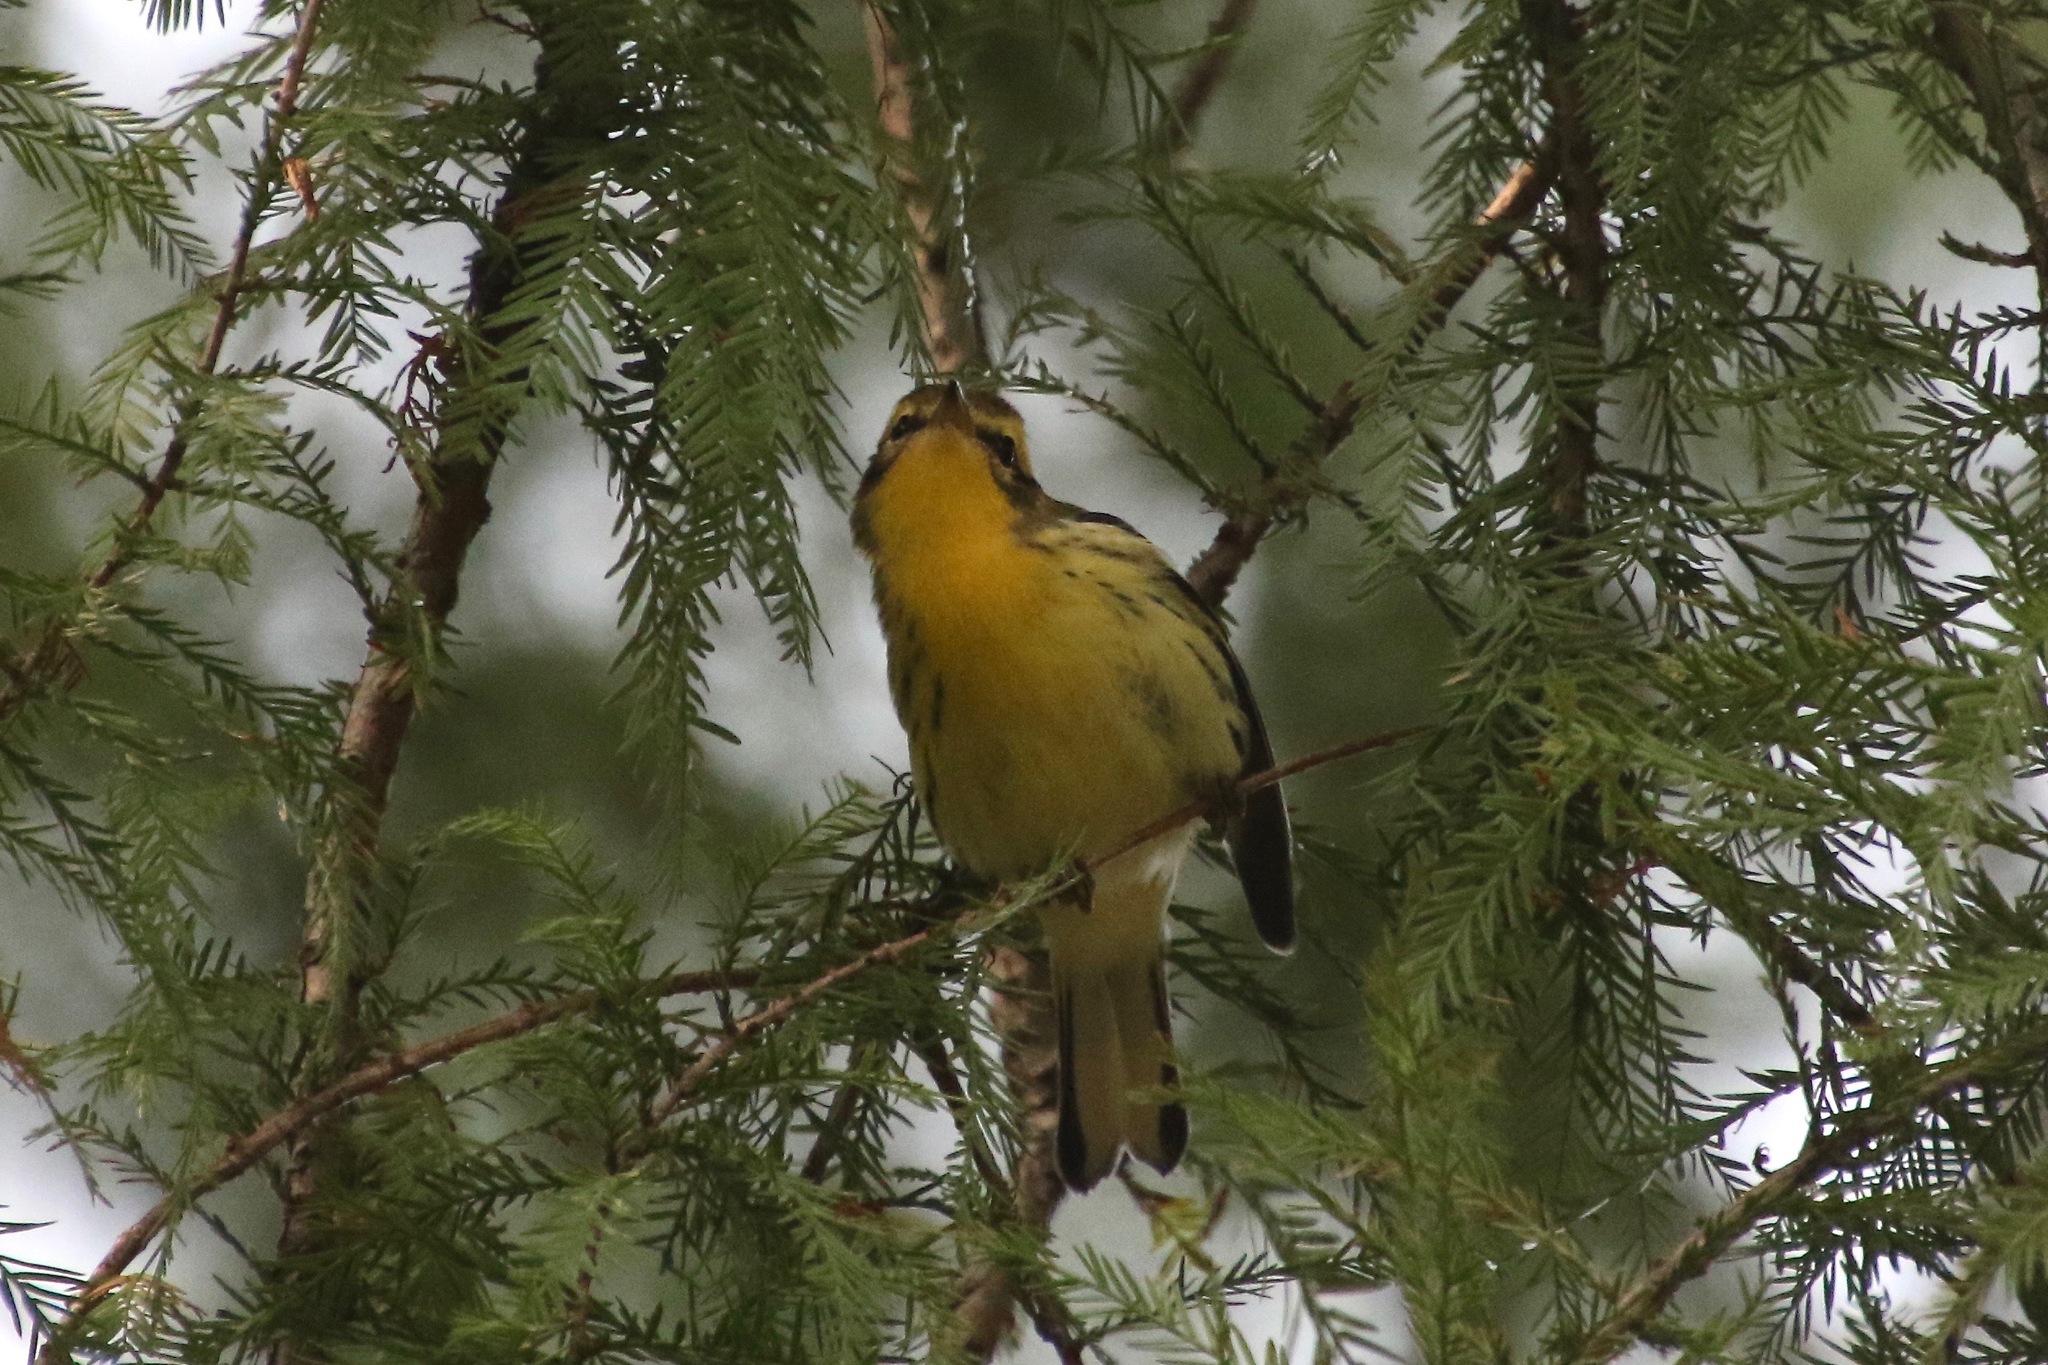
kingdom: Animalia
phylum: Chordata
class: Aves
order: Passeriformes
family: Parulidae
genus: Setophaga
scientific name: Setophaga fusca
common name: Blackburnian warbler
